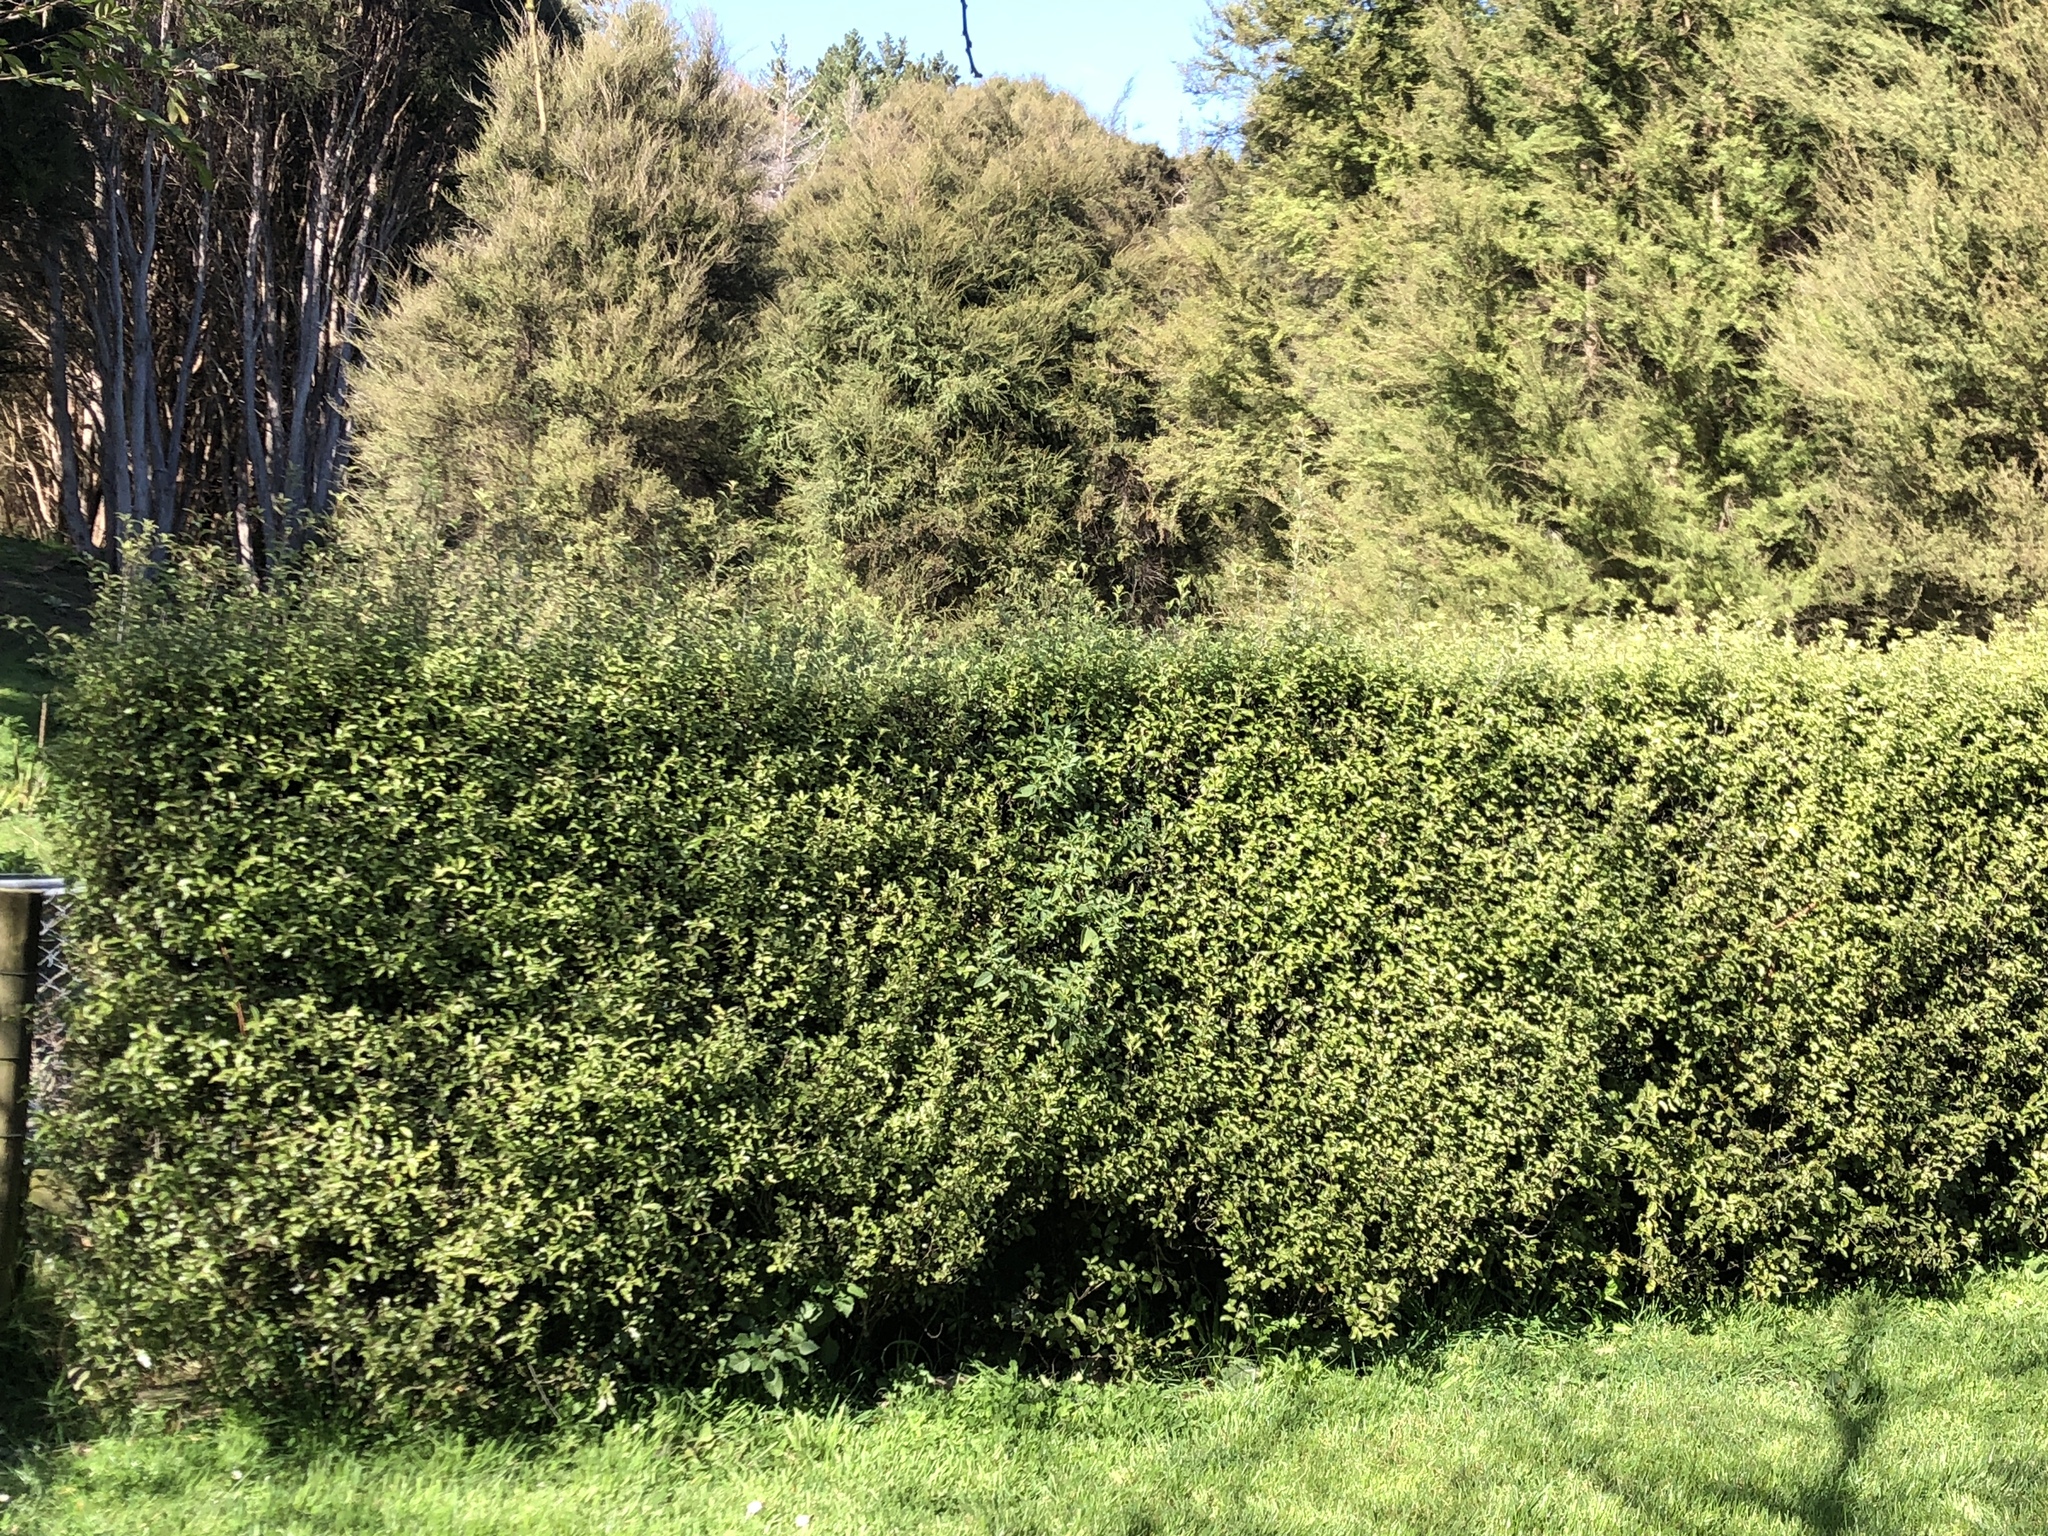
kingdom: Plantae
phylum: Tracheophyta
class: Magnoliopsida
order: Apiales
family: Pittosporaceae
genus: Pittosporum
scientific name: Pittosporum tenuifolium
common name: Kohuhu
